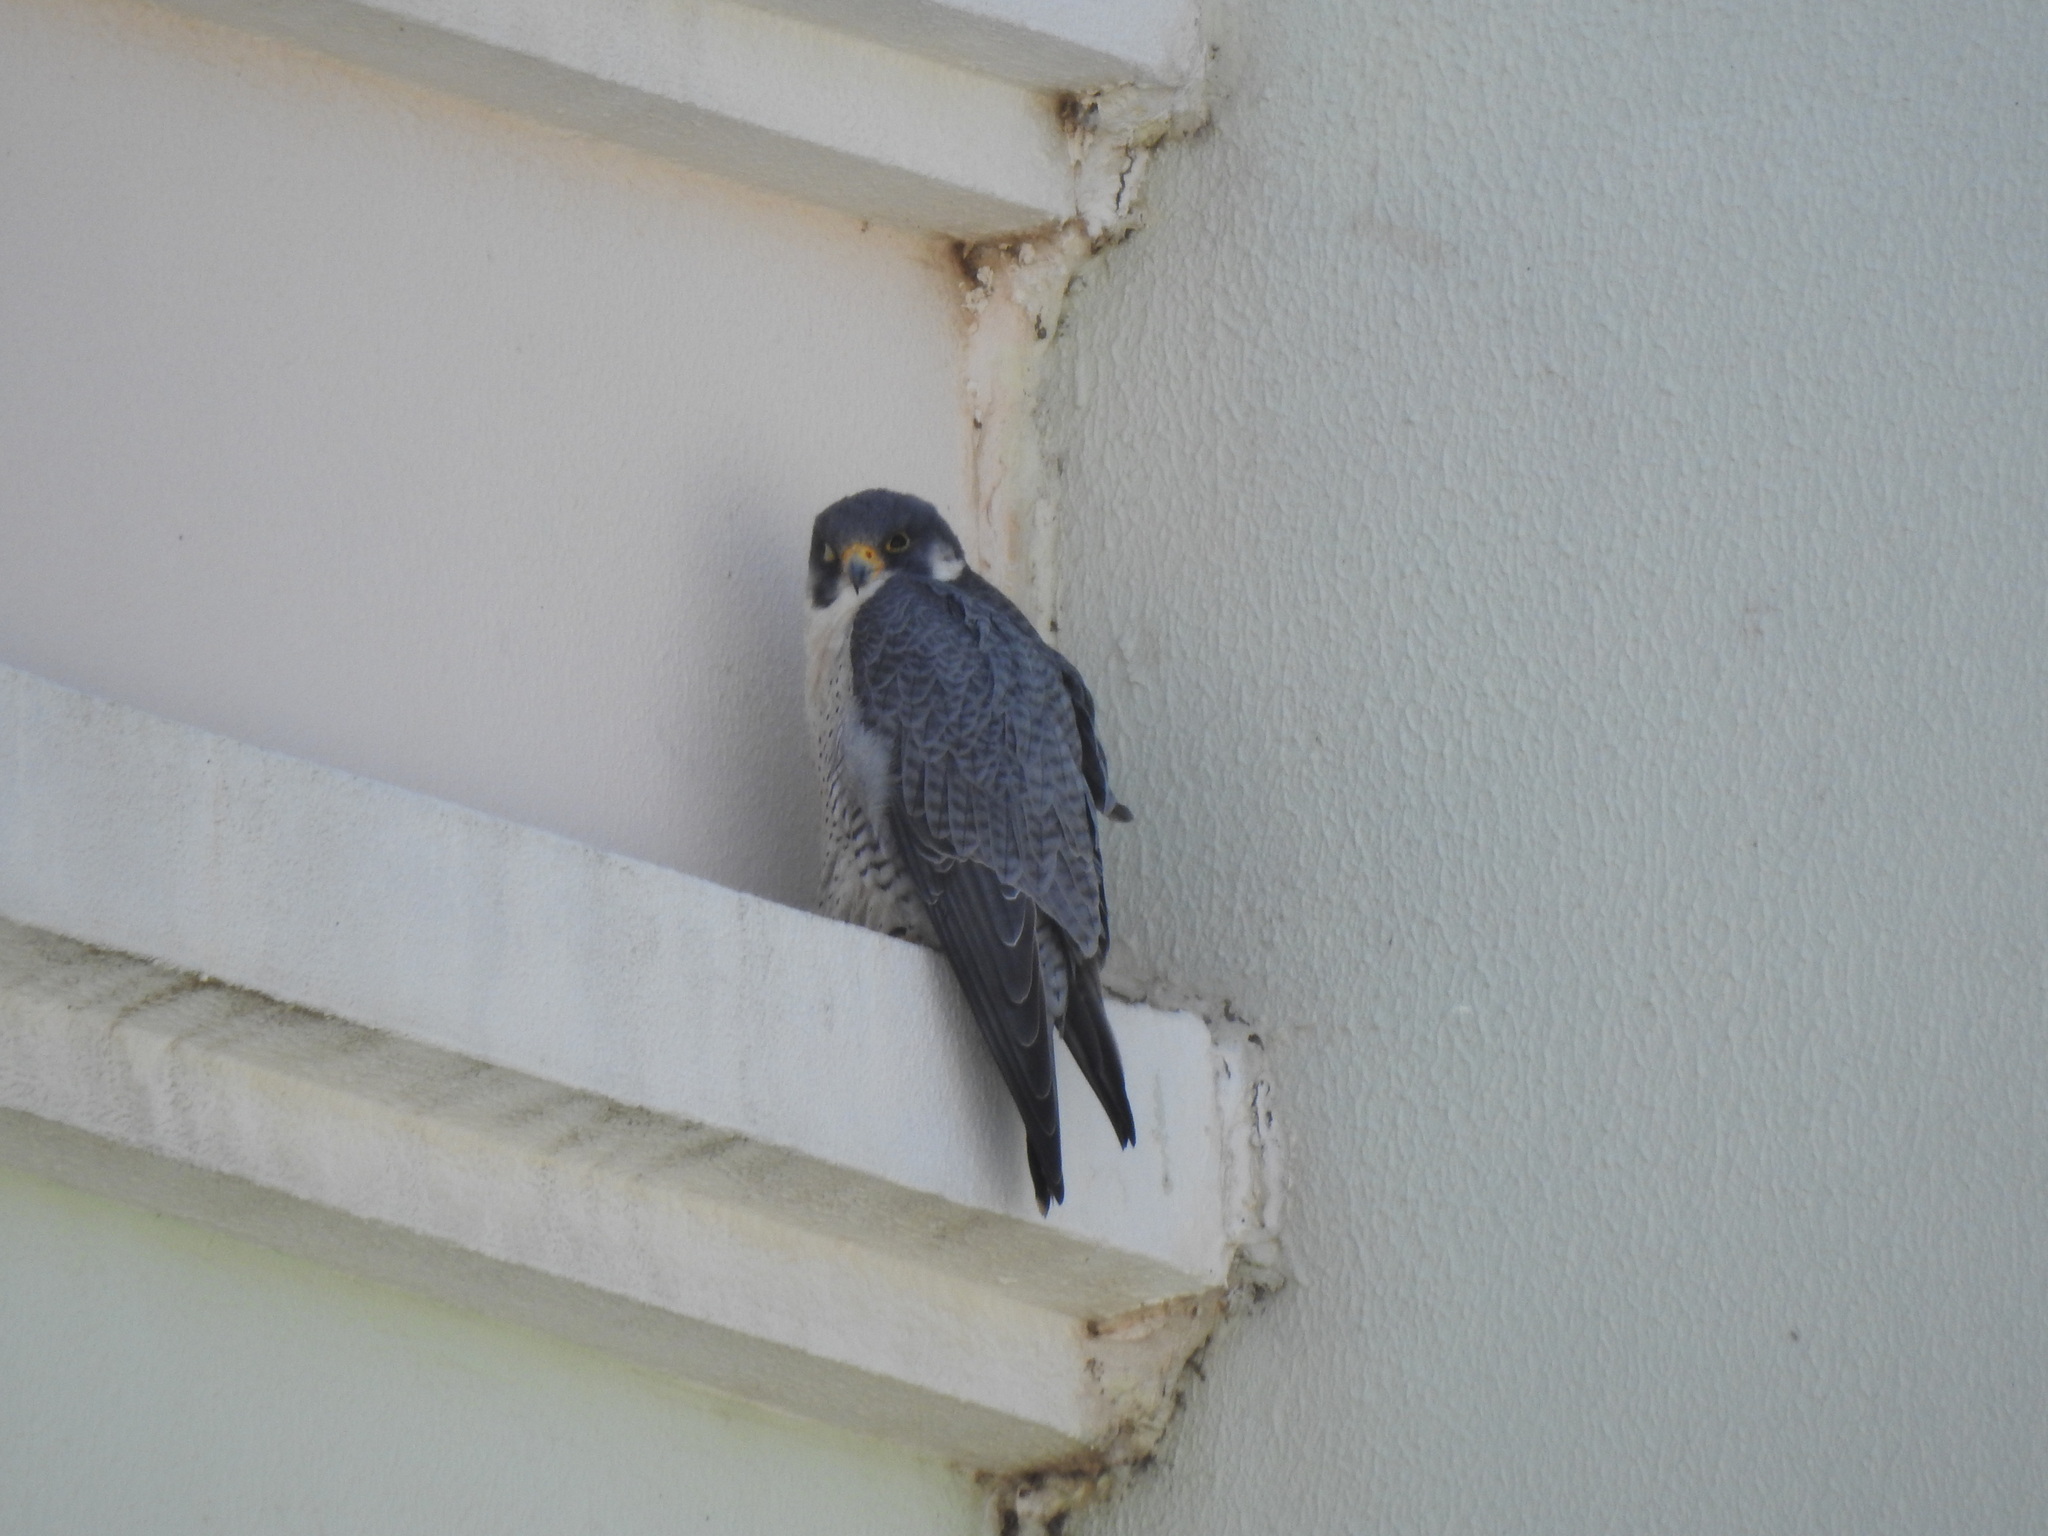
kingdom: Animalia
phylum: Chordata
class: Aves
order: Falconiformes
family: Falconidae
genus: Falco
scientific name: Falco peregrinus
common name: Peregrine falcon
